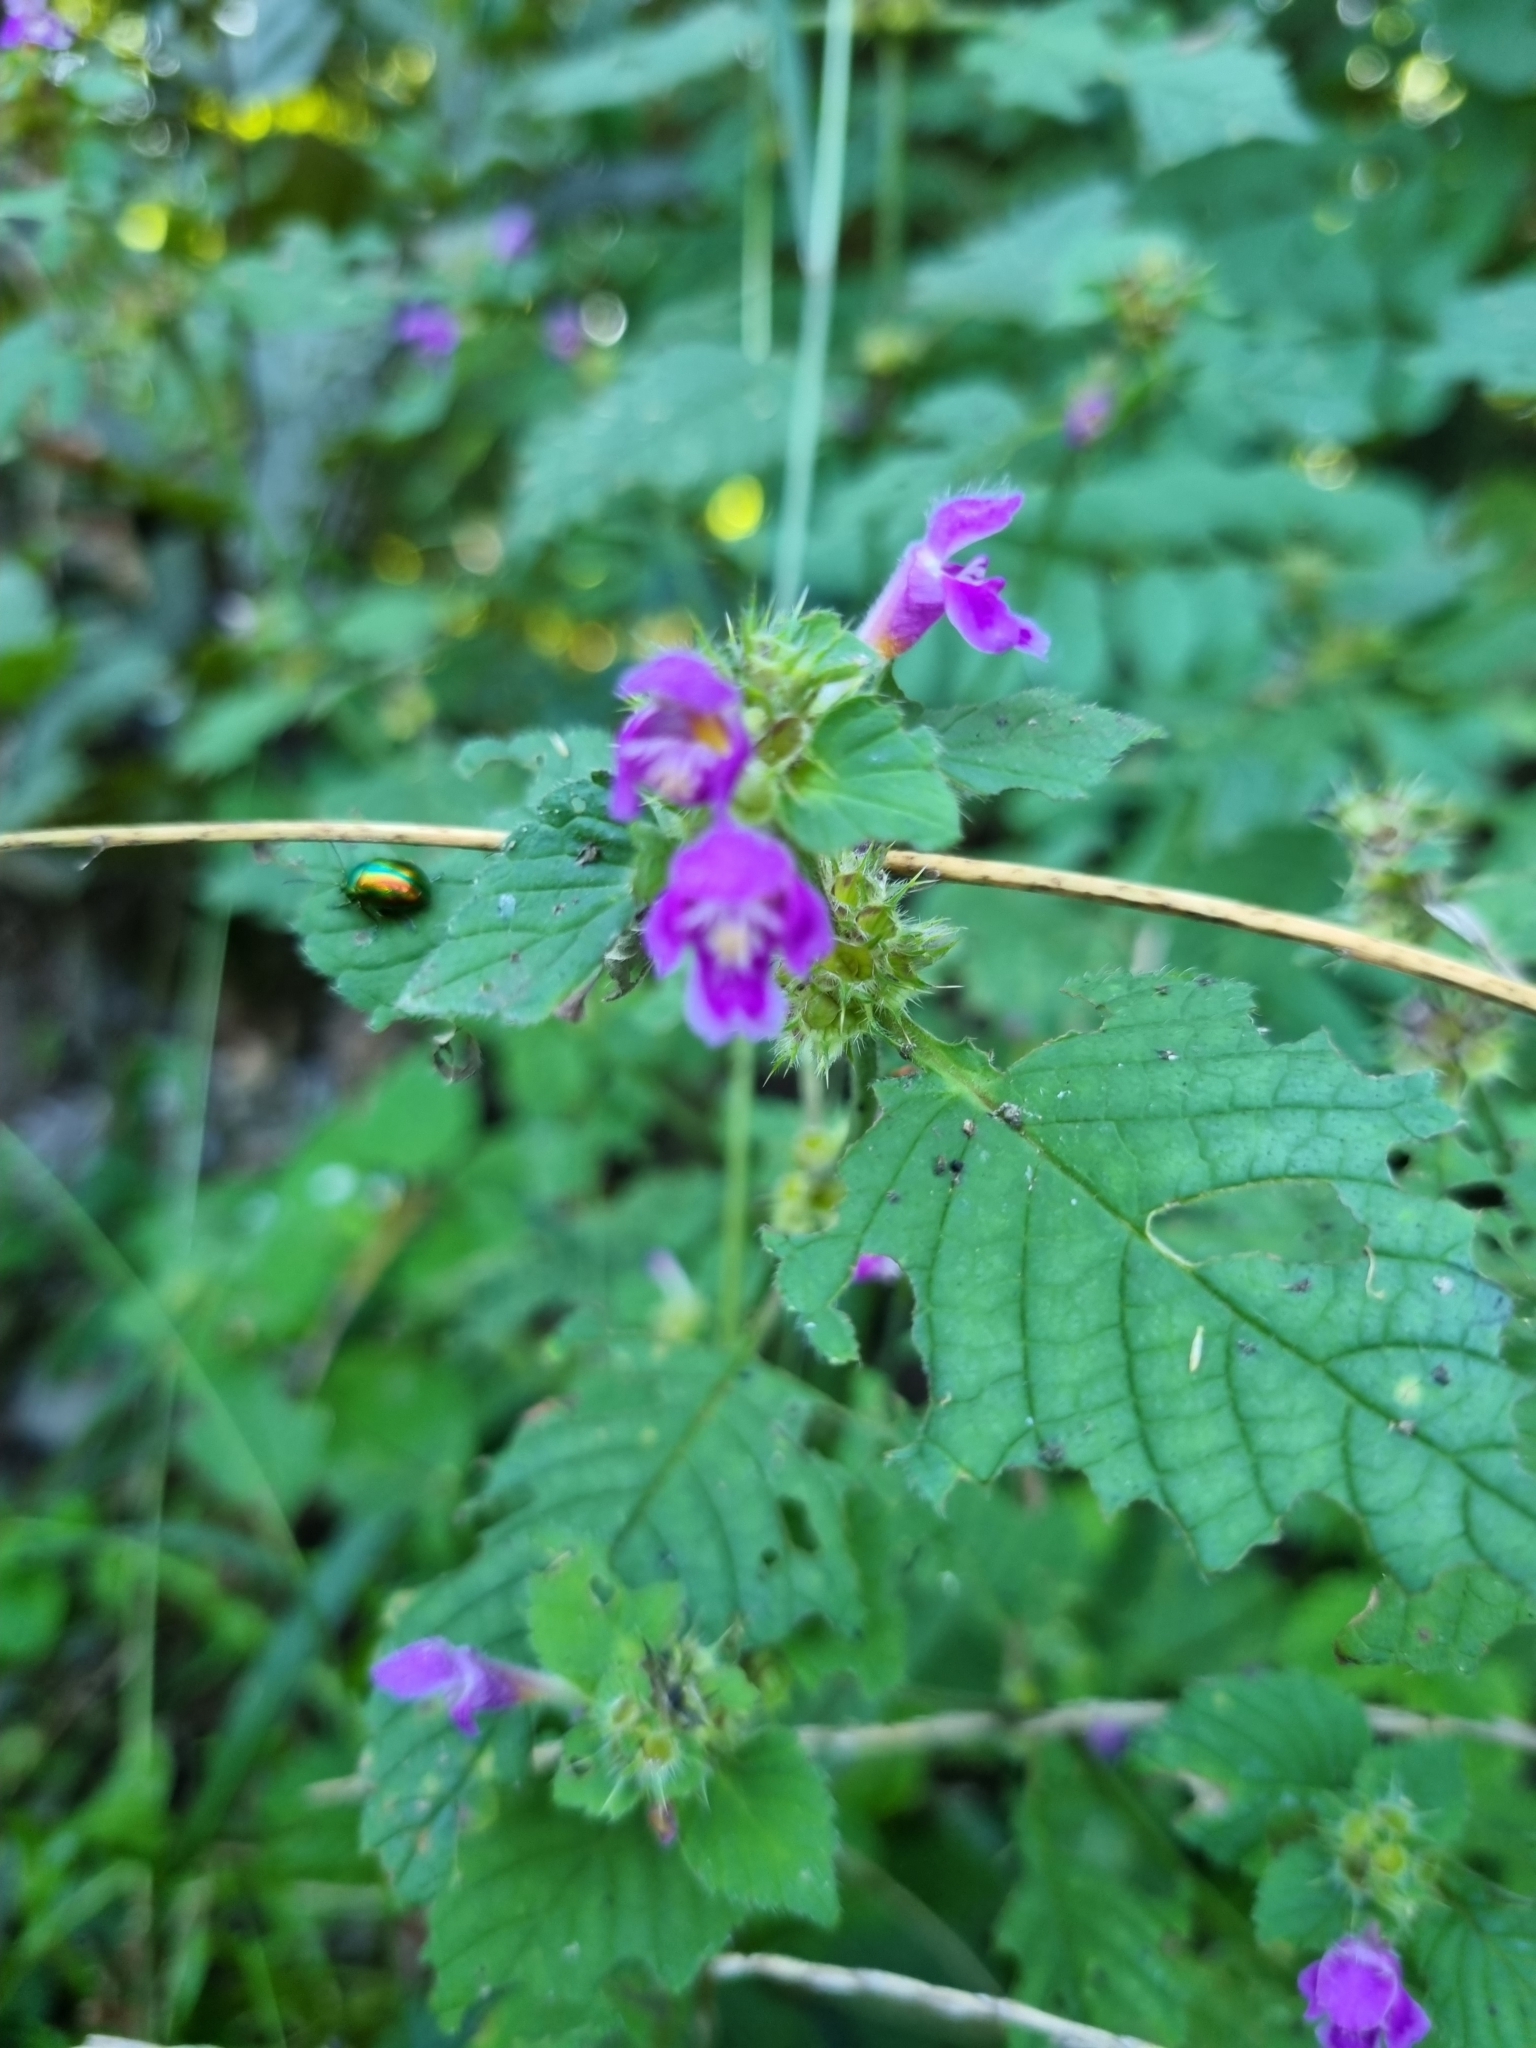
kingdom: Plantae
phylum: Tracheophyta
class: Magnoliopsida
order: Lamiales
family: Lamiaceae
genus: Galeopsis
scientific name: Galeopsis pubescens
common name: Downy hemp-nettle
